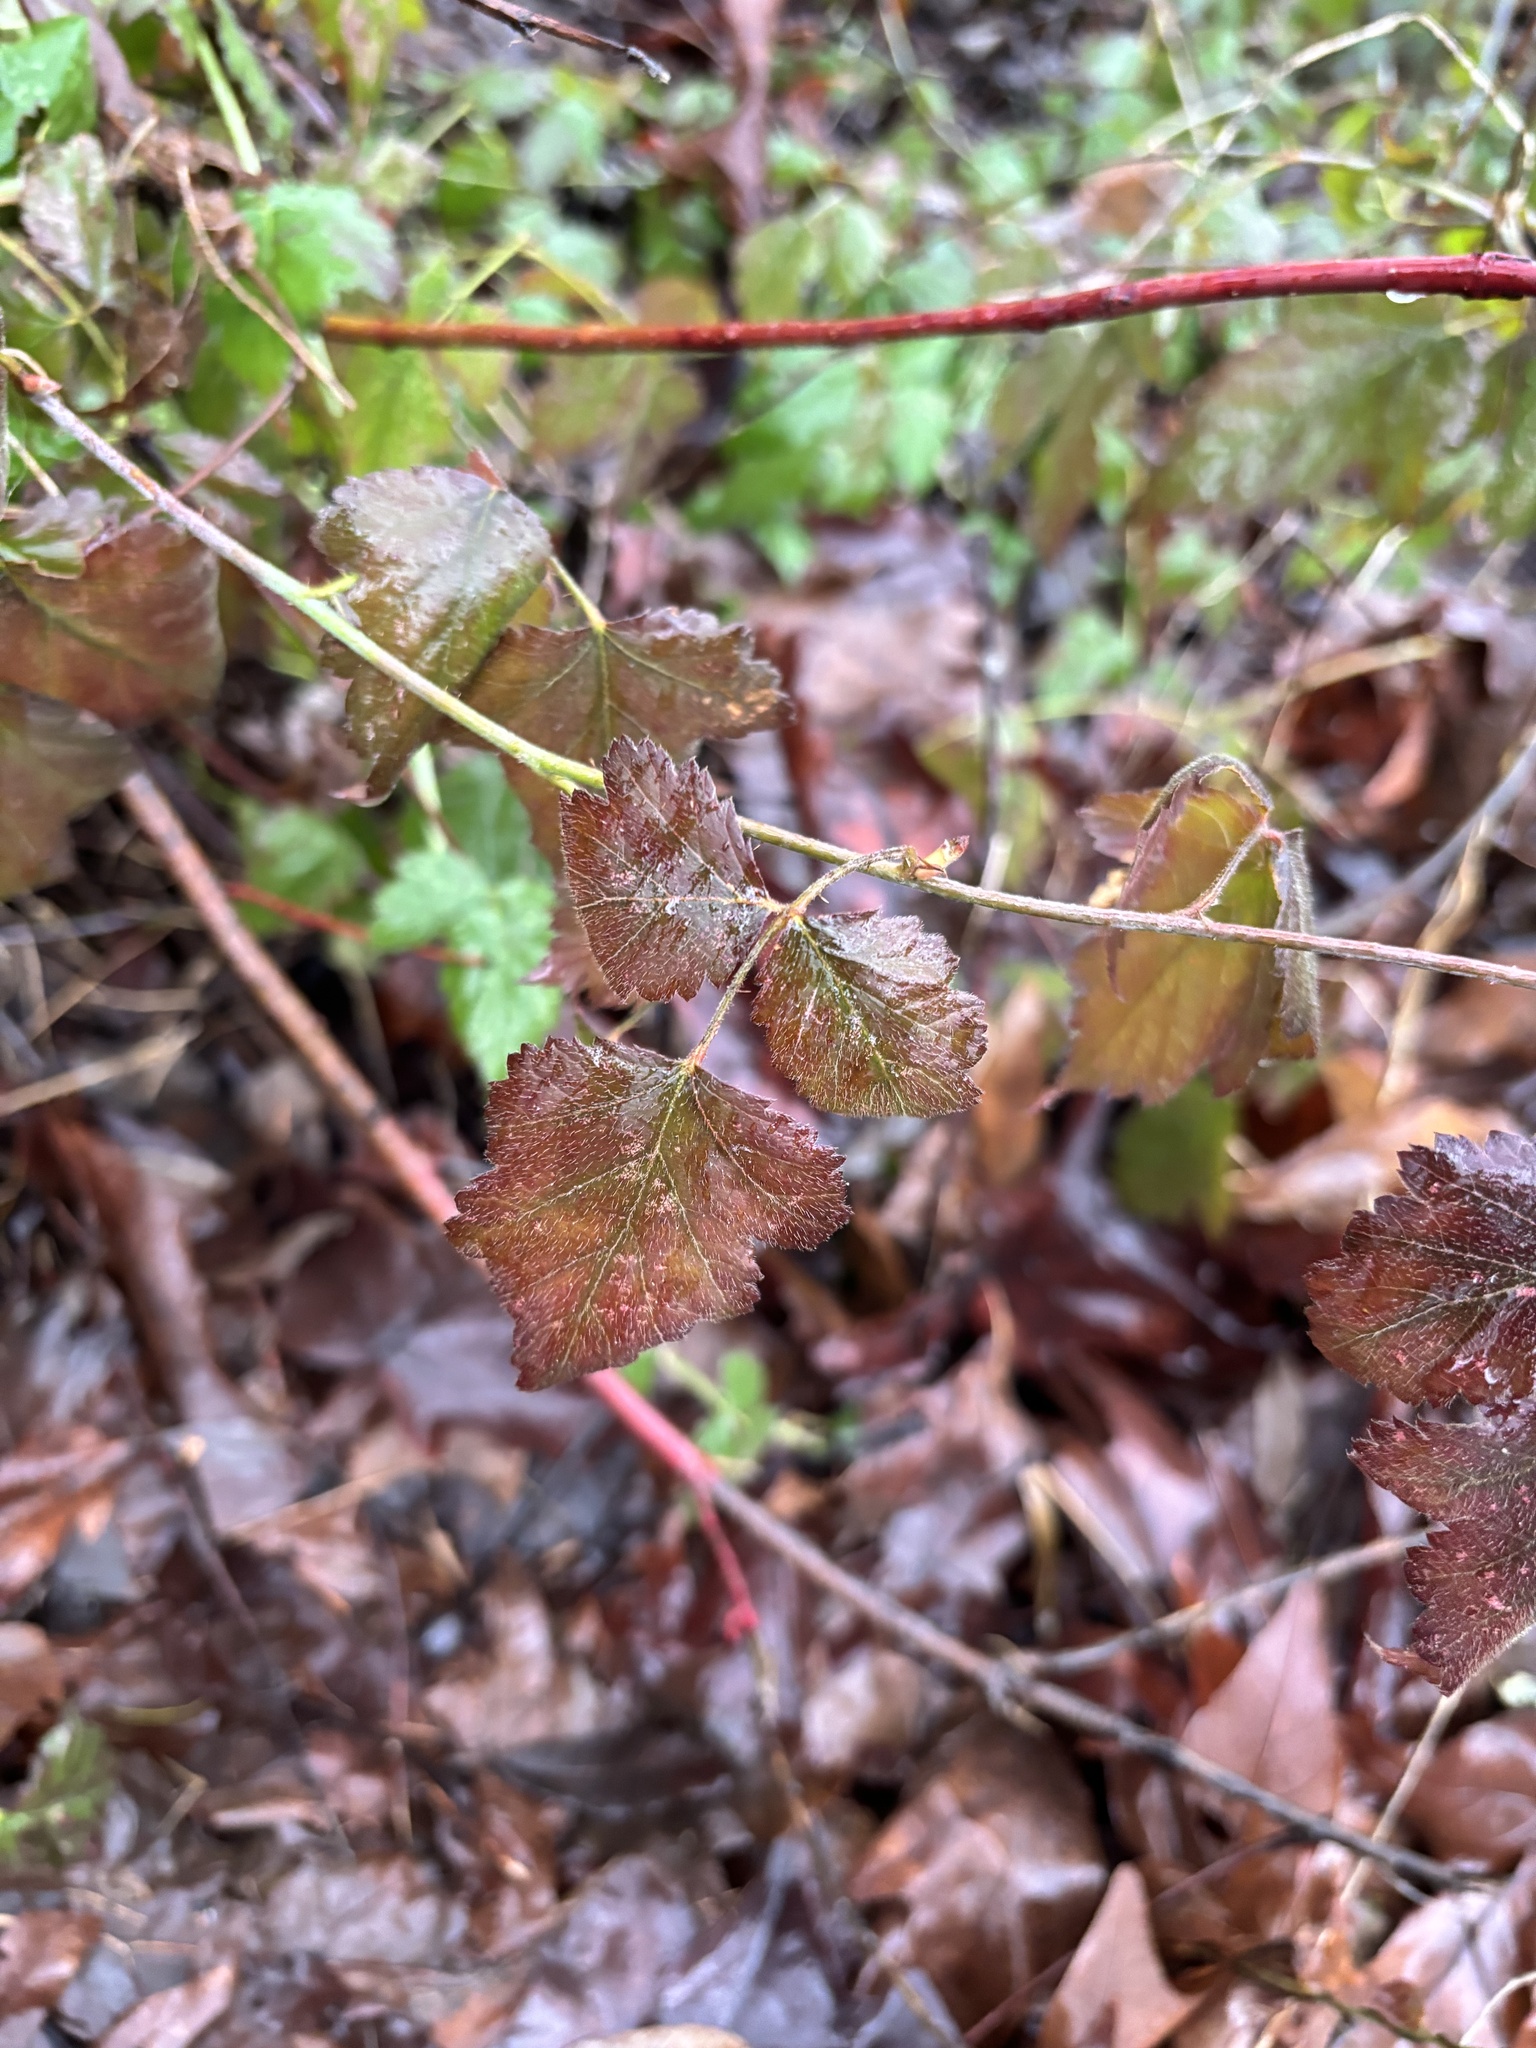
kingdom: Plantae
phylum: Tracheophyta
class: Magnoliopsida
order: Rosales
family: Rosaceae
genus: Rubus
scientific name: Rubus ursinus
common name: Pacific blackberry
